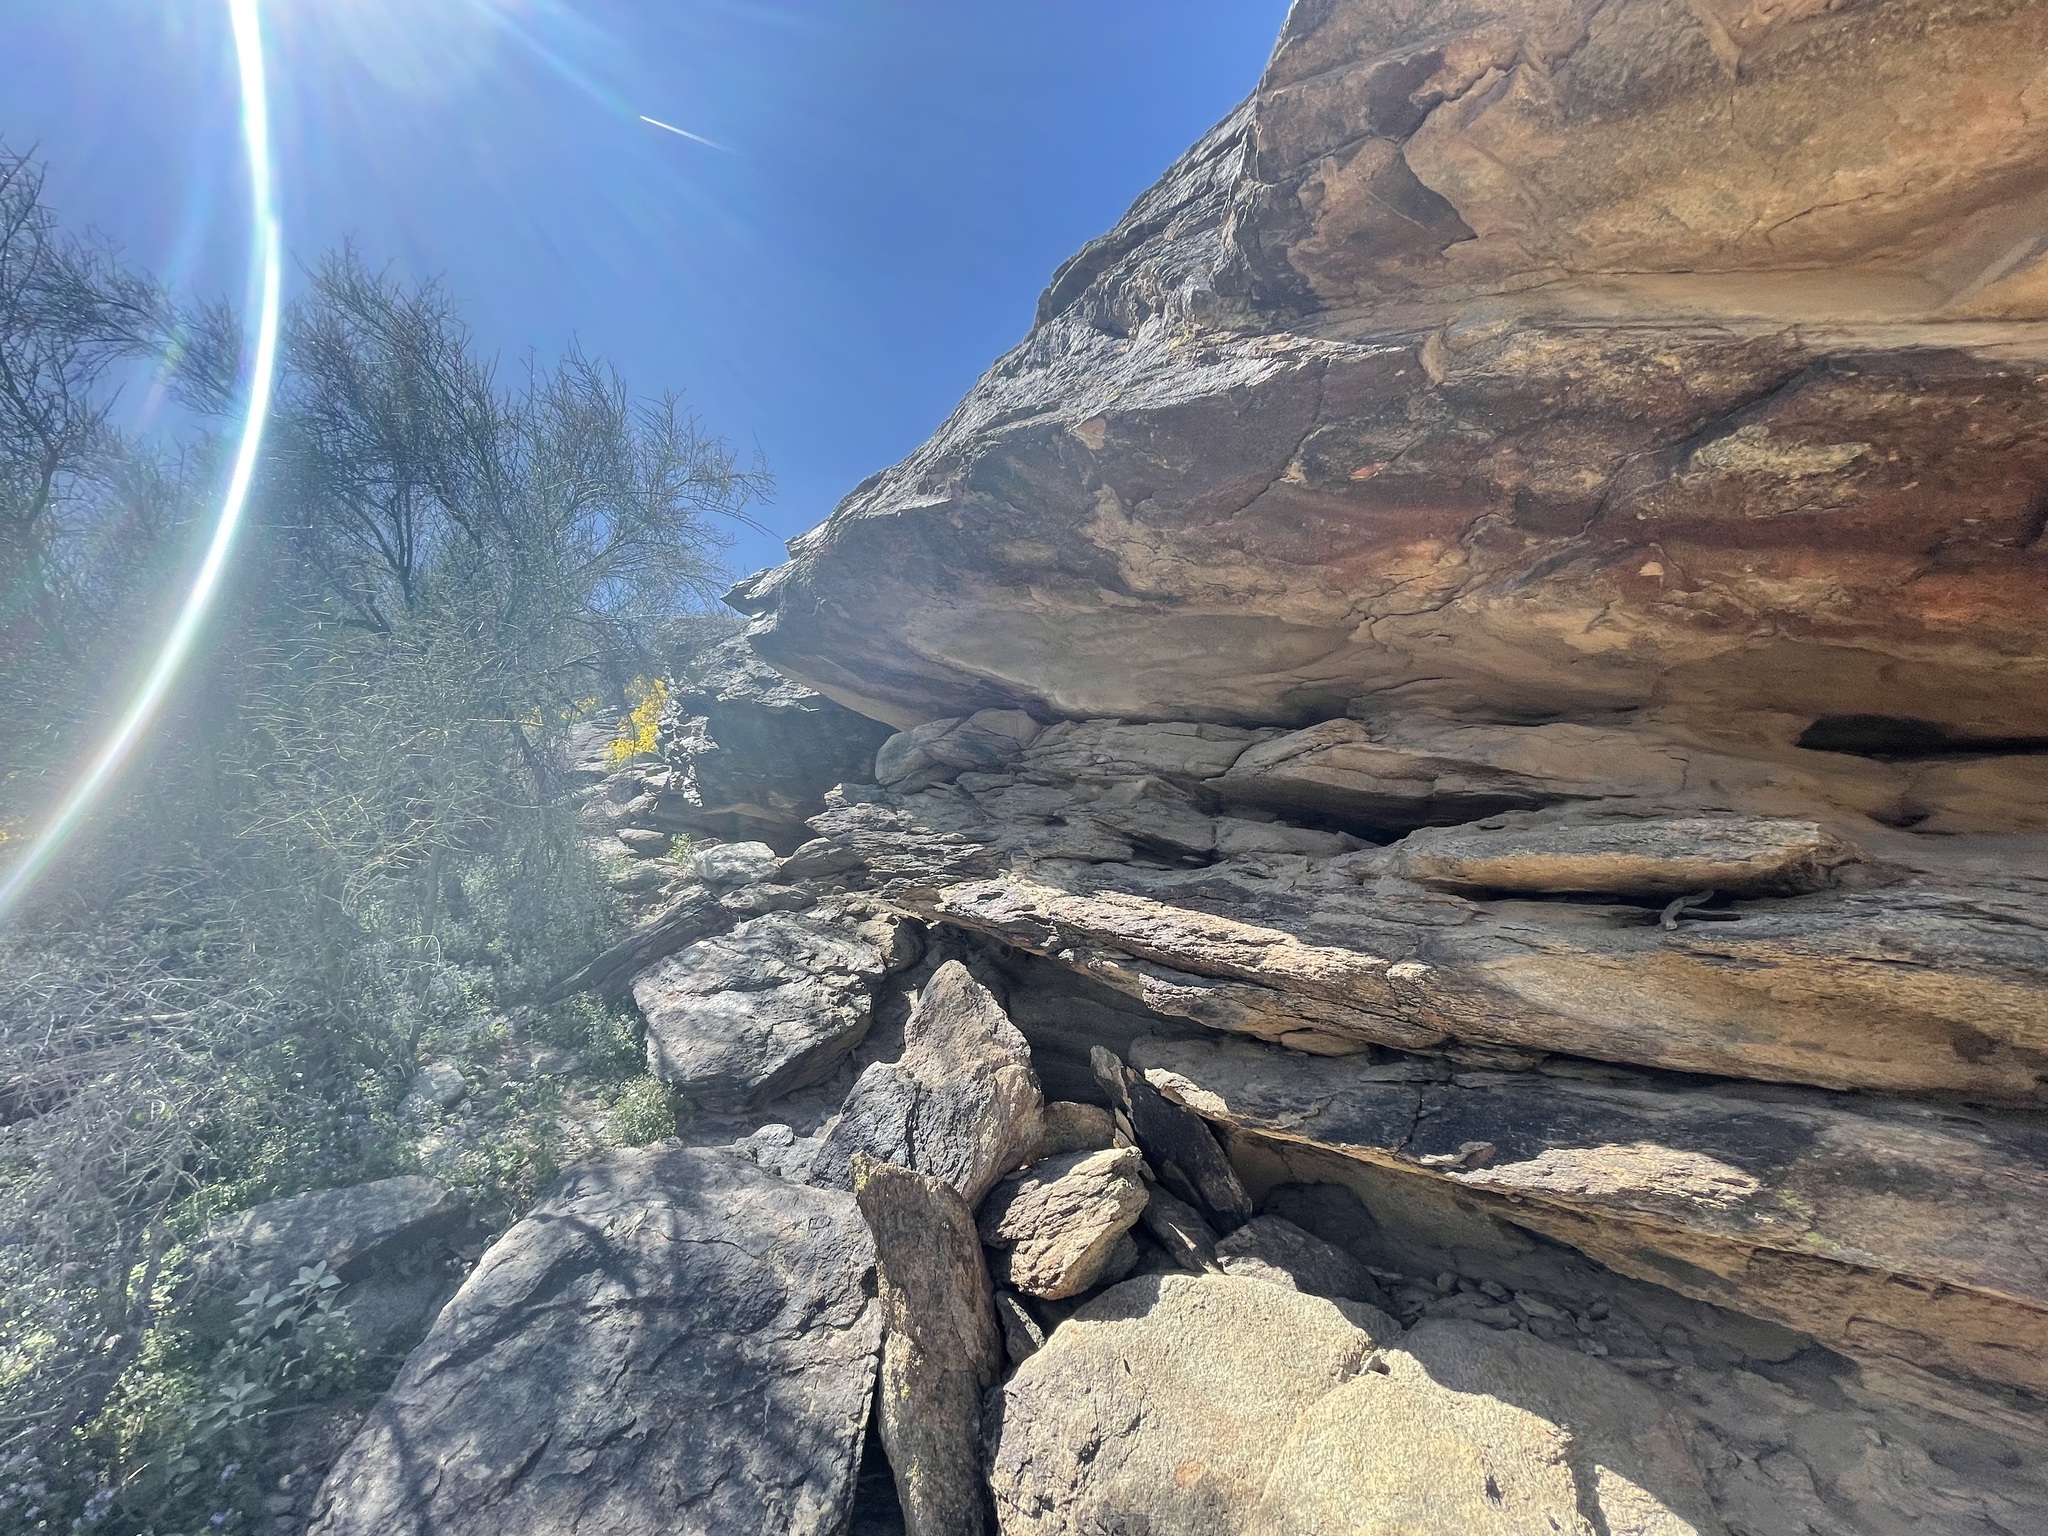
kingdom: Animalia
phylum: Chordata
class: Squamata
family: Iguanidae
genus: Sauromalus
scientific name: Sauromalus ater
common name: Northern chuckwalla
